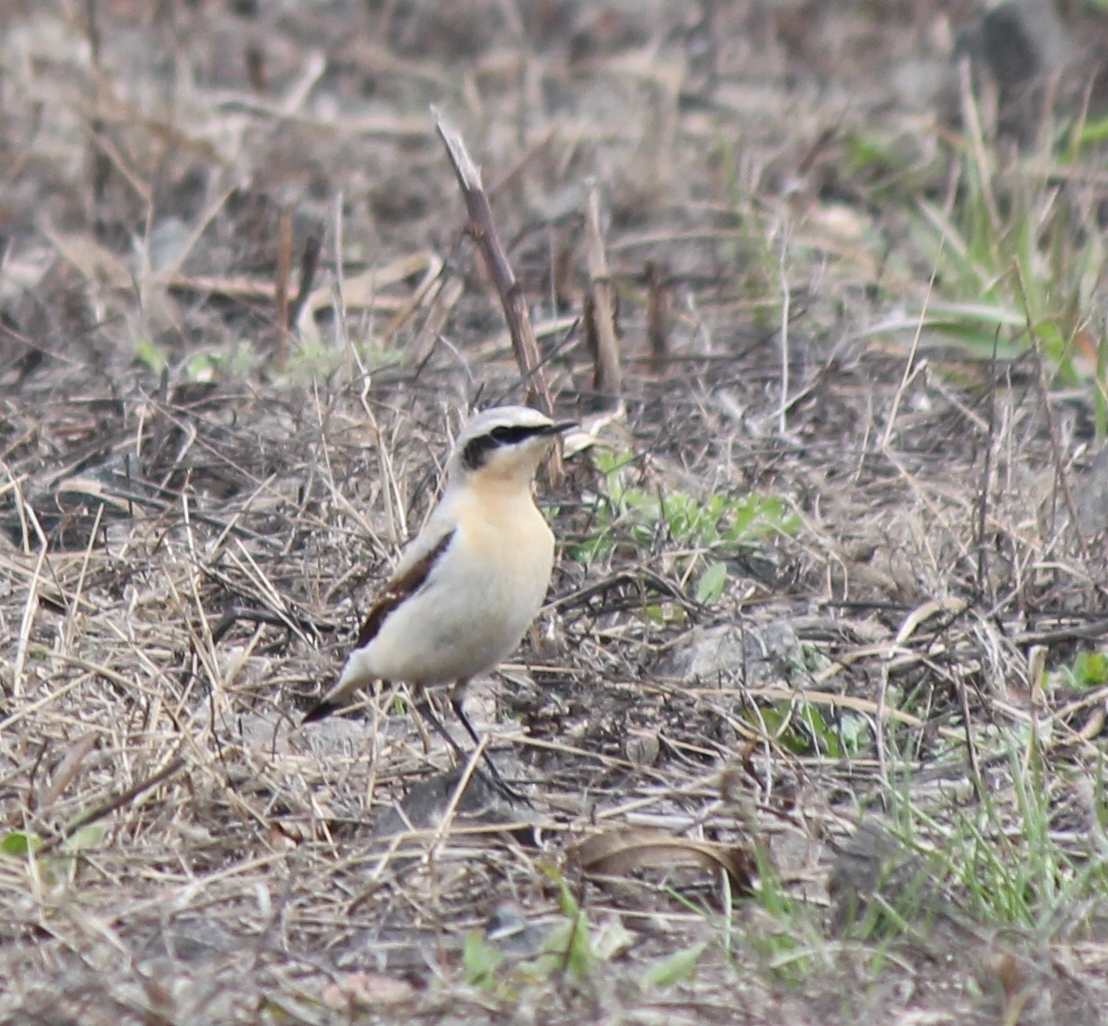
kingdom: Animalia
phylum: Chordata
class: Aves
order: Passeriformes
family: Muscicapidae
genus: Oenanthe
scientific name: Oenanthe oenanthe
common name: Northern wheatear
